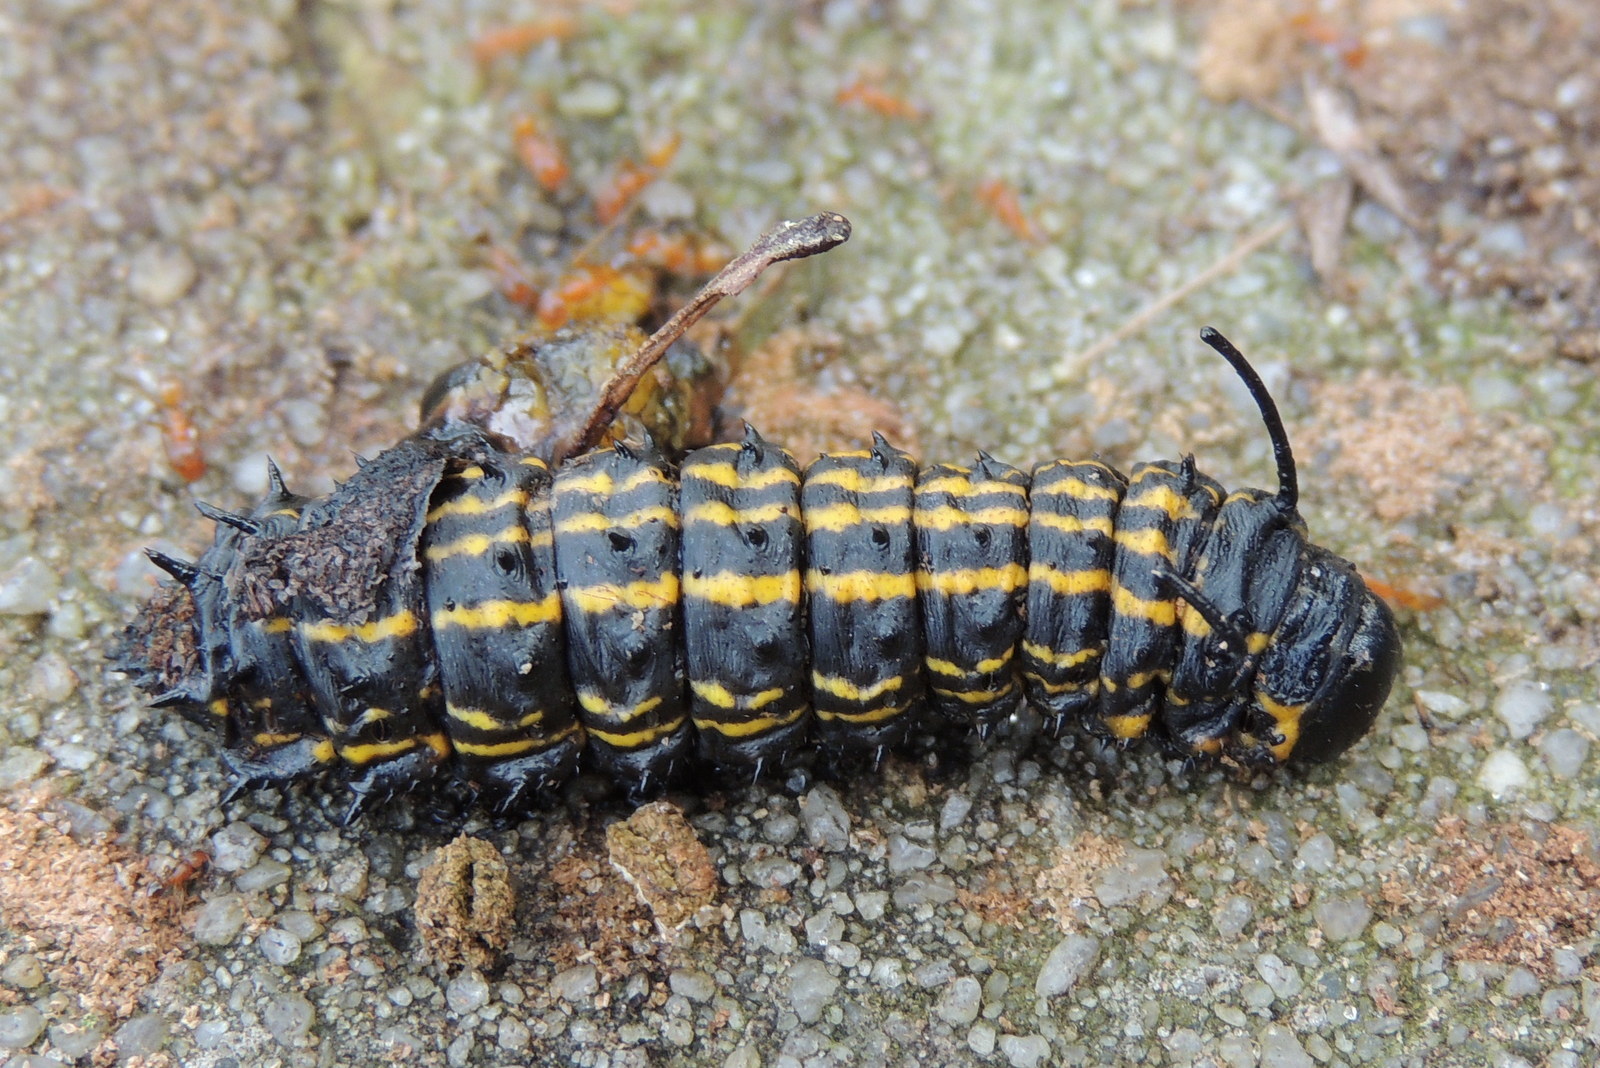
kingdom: Animalia
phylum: Arthropoda
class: Insecta
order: Lepidoptera
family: Saturniidae
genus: Anisota
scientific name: Anisota peigleri
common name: Peigler's oakworm moth
